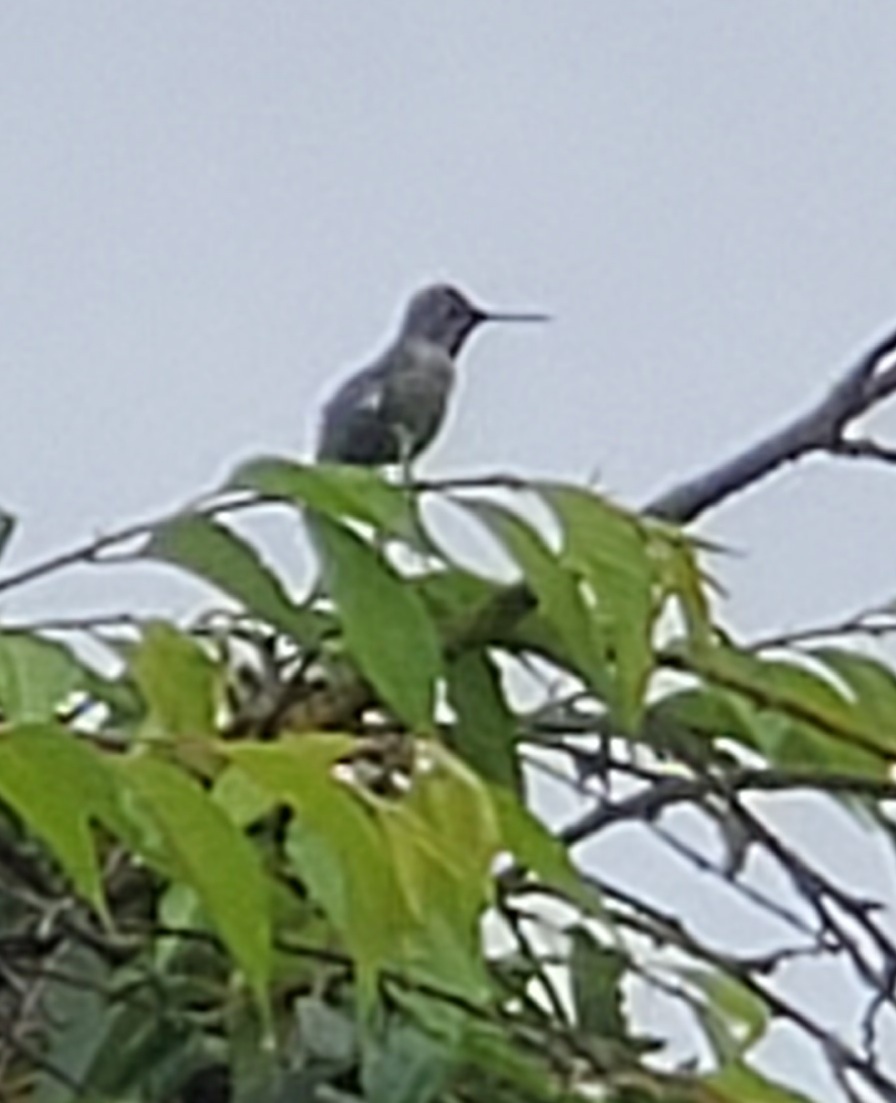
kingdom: Animalia
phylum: Chordata
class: Aves
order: Apodiformes
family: Trochilidae
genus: Calypte
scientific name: Calypte anna
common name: Anna's hummingbird
